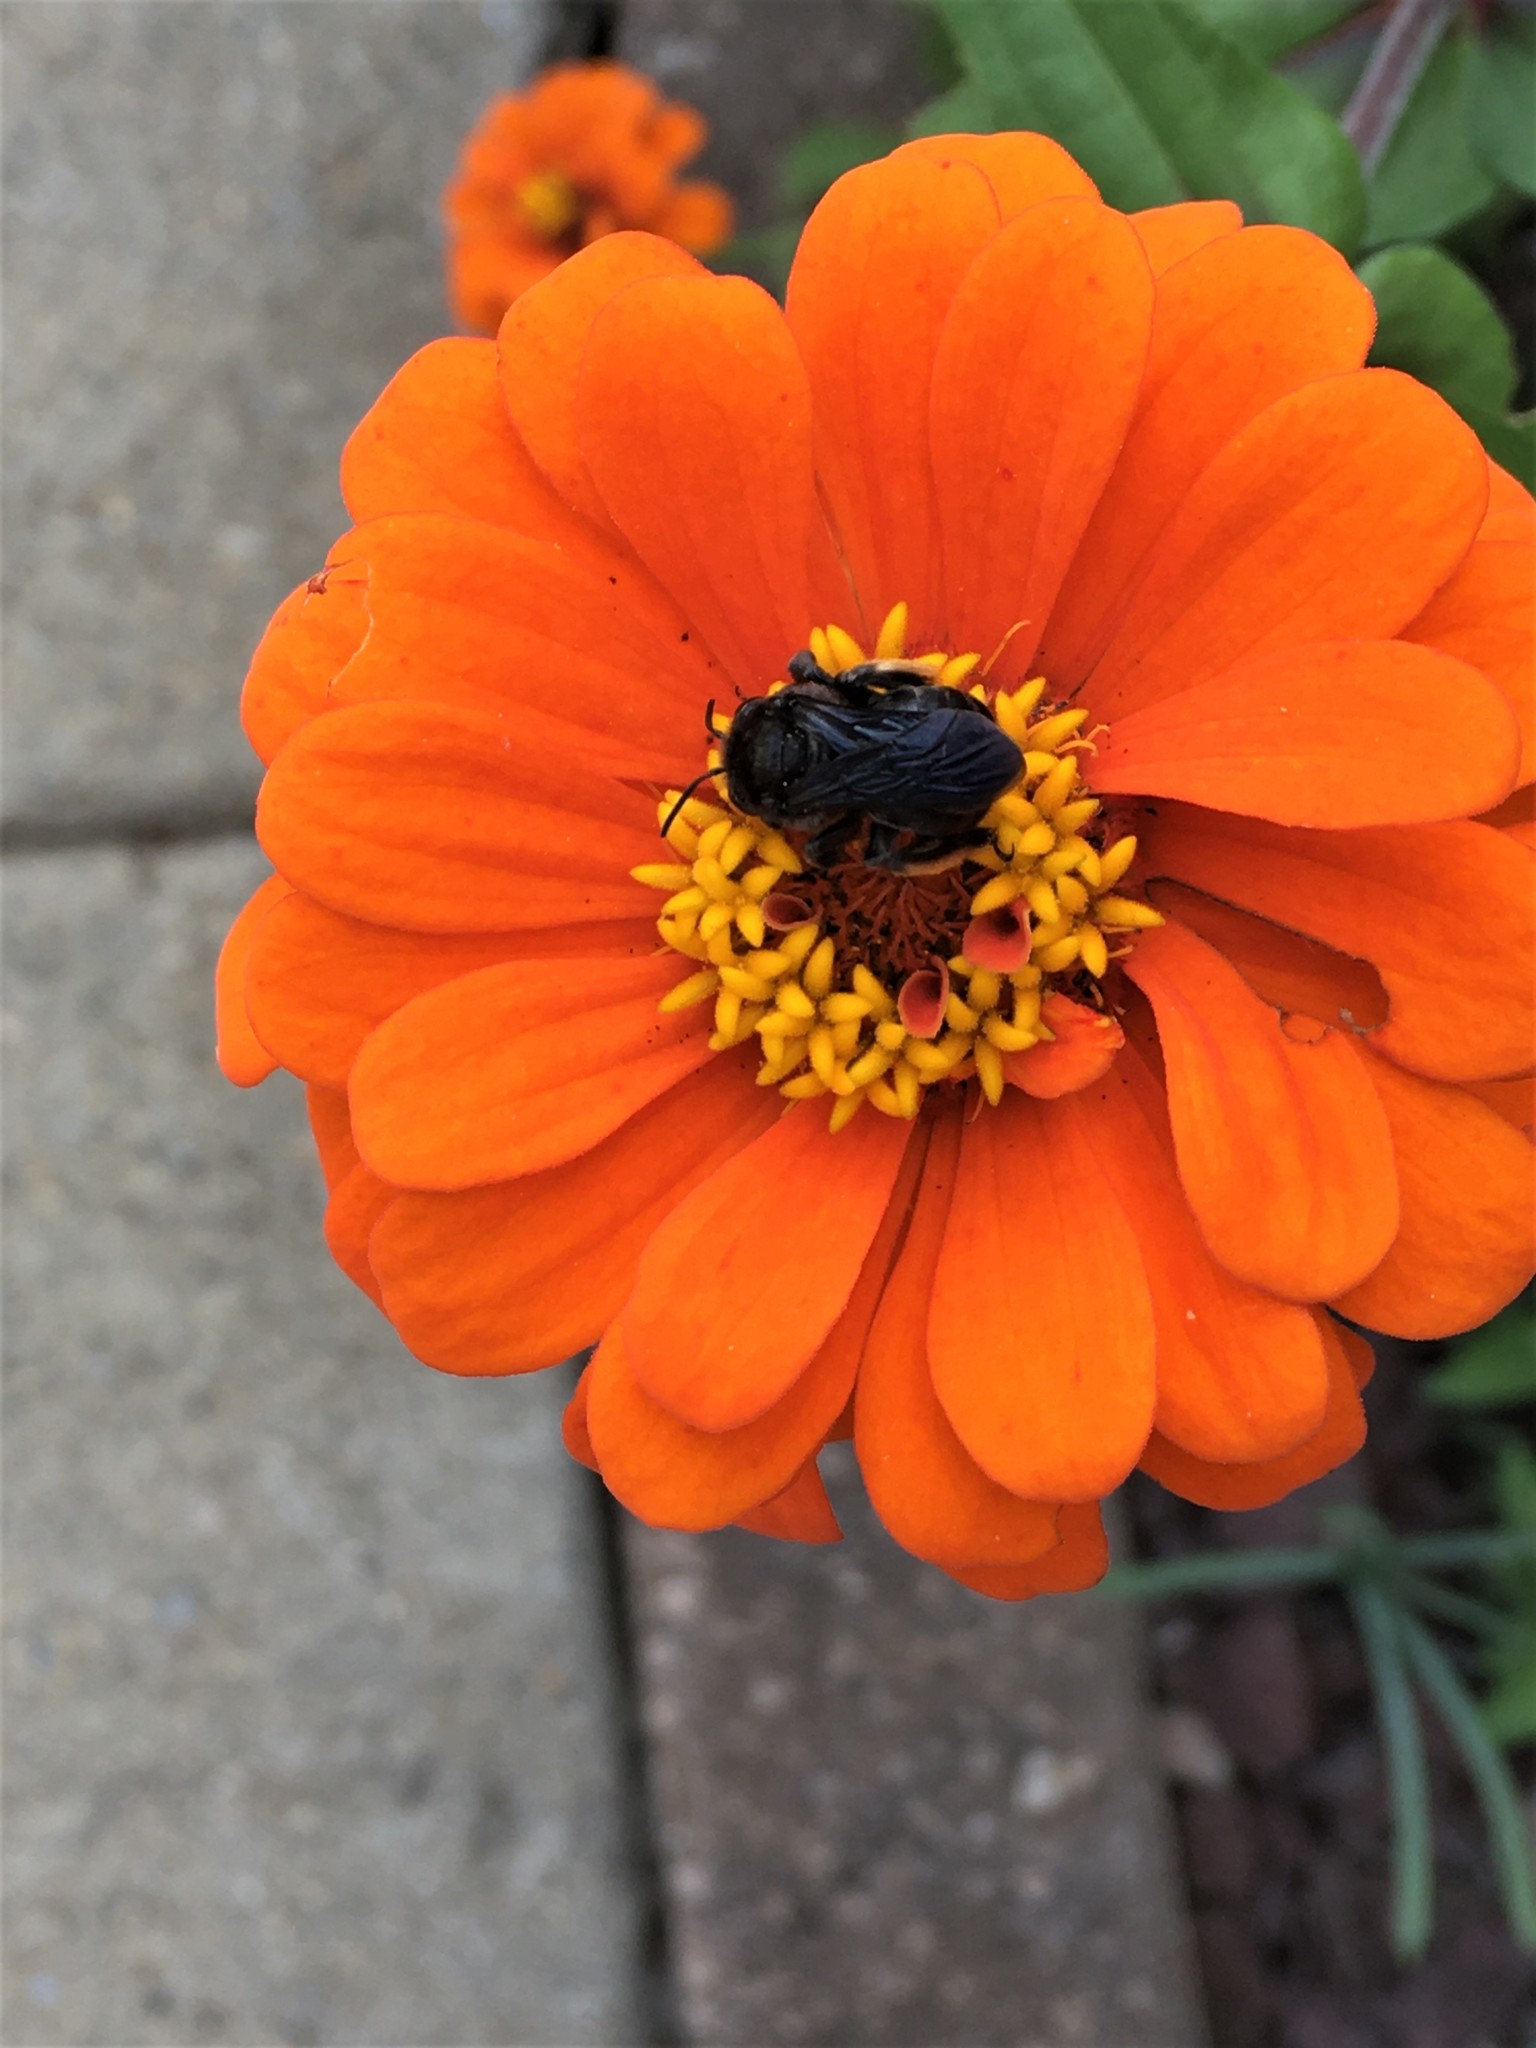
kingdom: Animalia
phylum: Arthropoda
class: Insecta
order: Hymenoptera
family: Apidae
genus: Melissodes
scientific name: Melissodes bimaculatus
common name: Two-spotted long-horned bee
